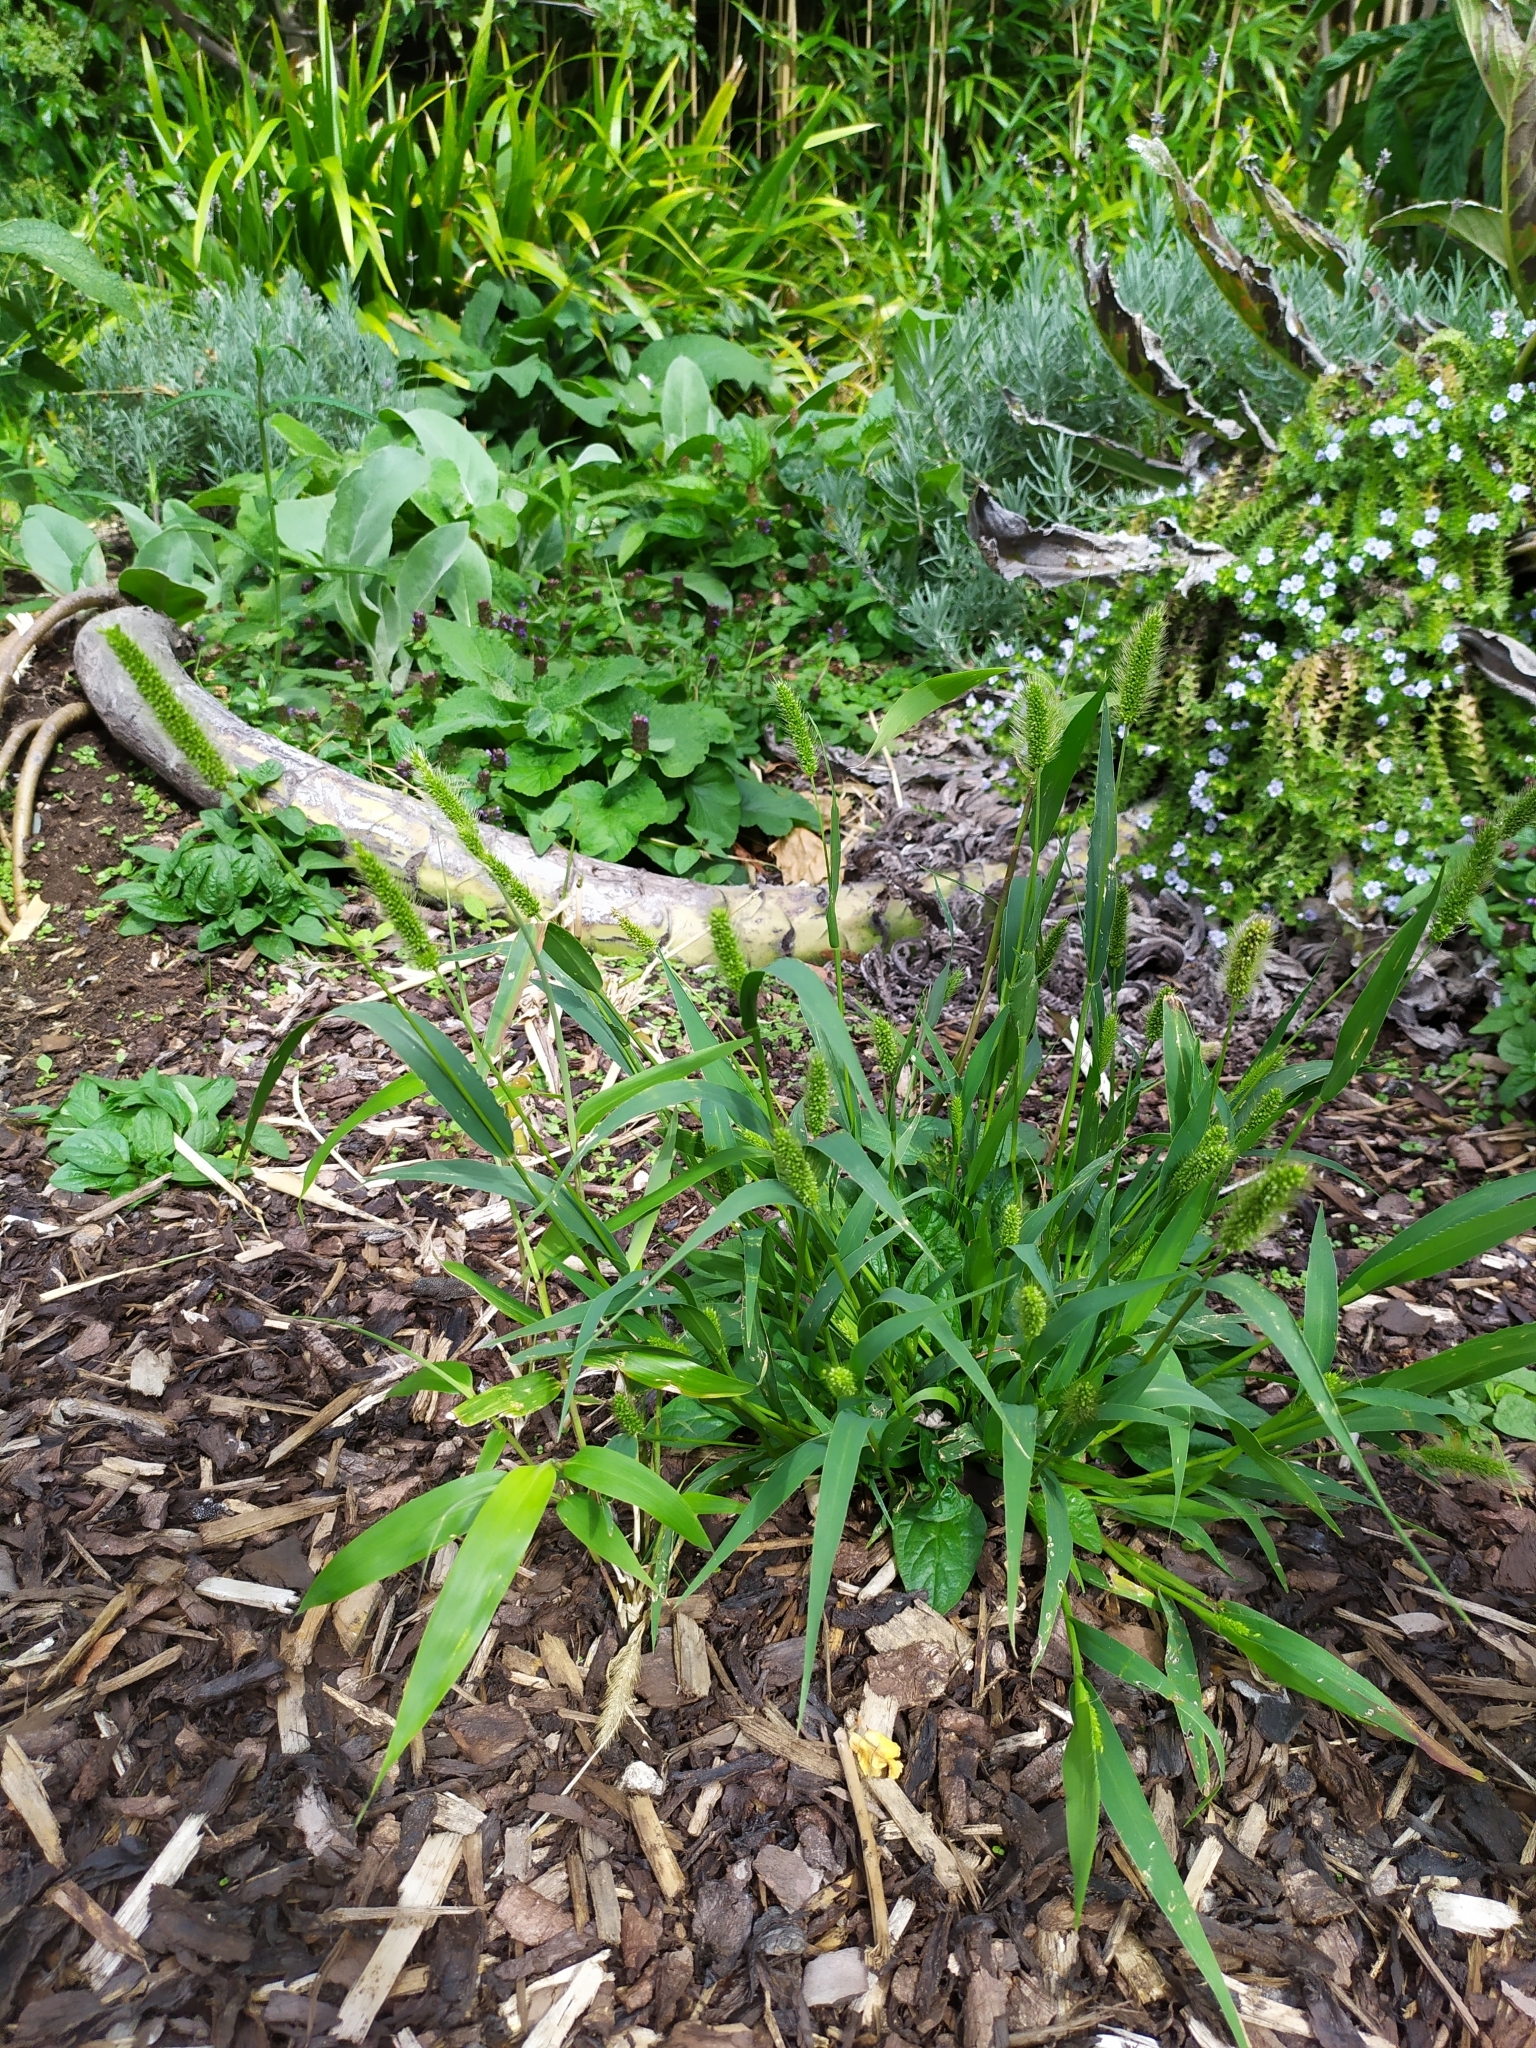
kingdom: Plantae
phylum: Tracheophyta
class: Liliopsida
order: Poales
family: Poaceae
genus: Setaria
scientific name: Setaria viridis
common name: Green bristlegrass
